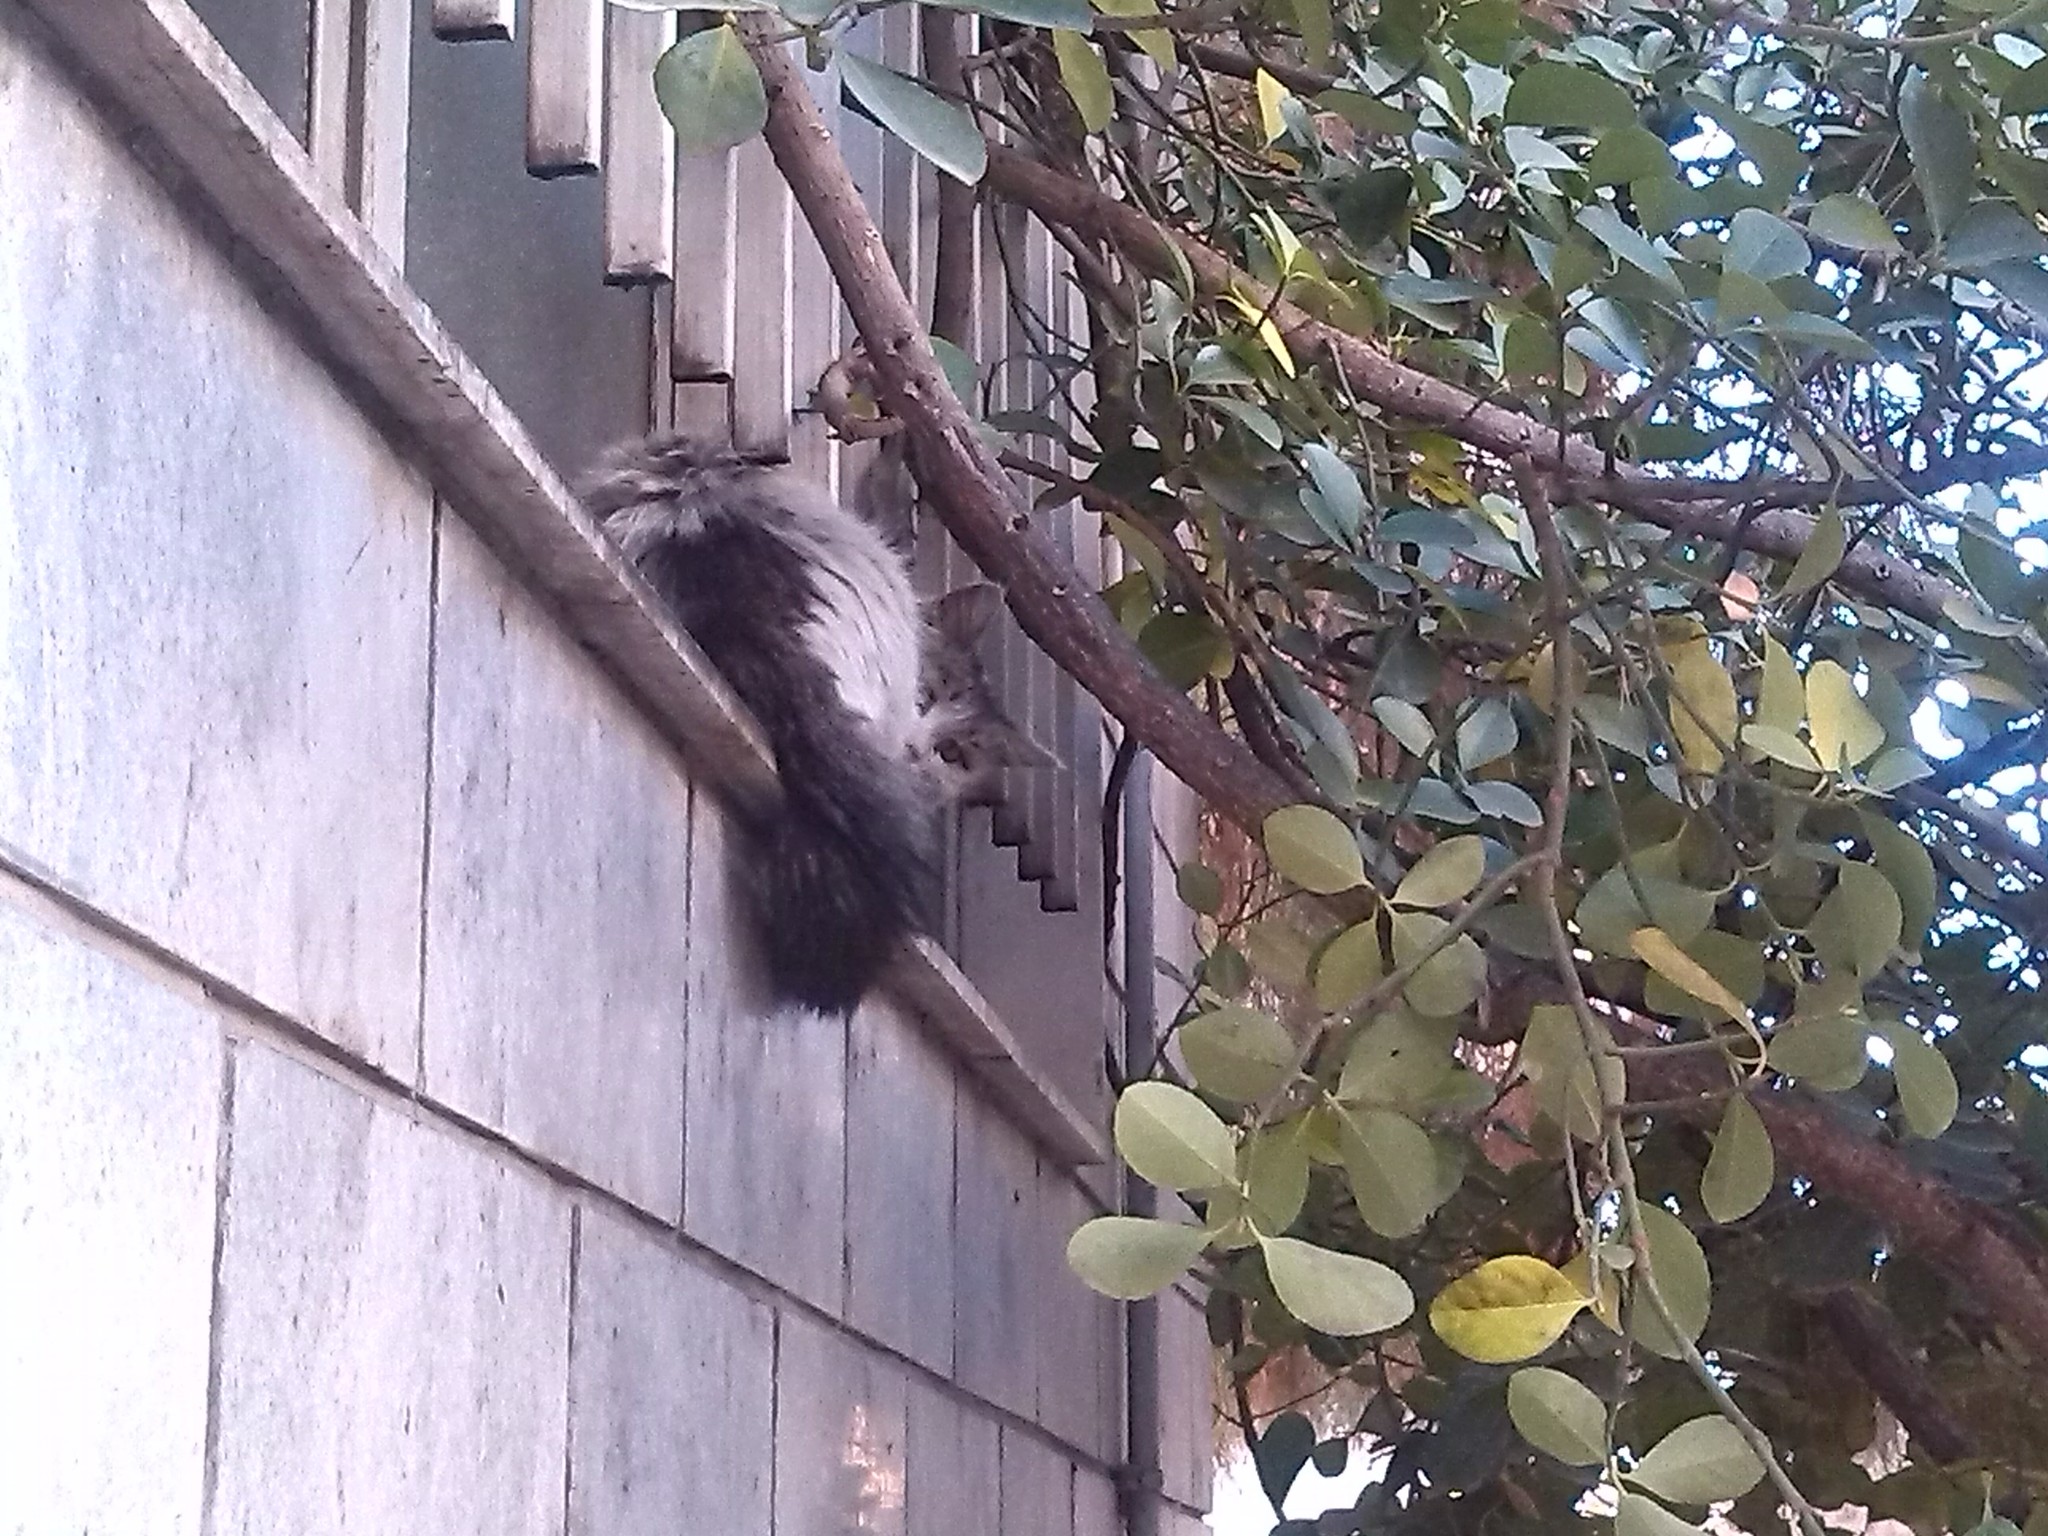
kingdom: Animalia
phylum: Chordata
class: Mammalia
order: Carnivora
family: Felidae
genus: Felis
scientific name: Felis catus
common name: Domestic cat
